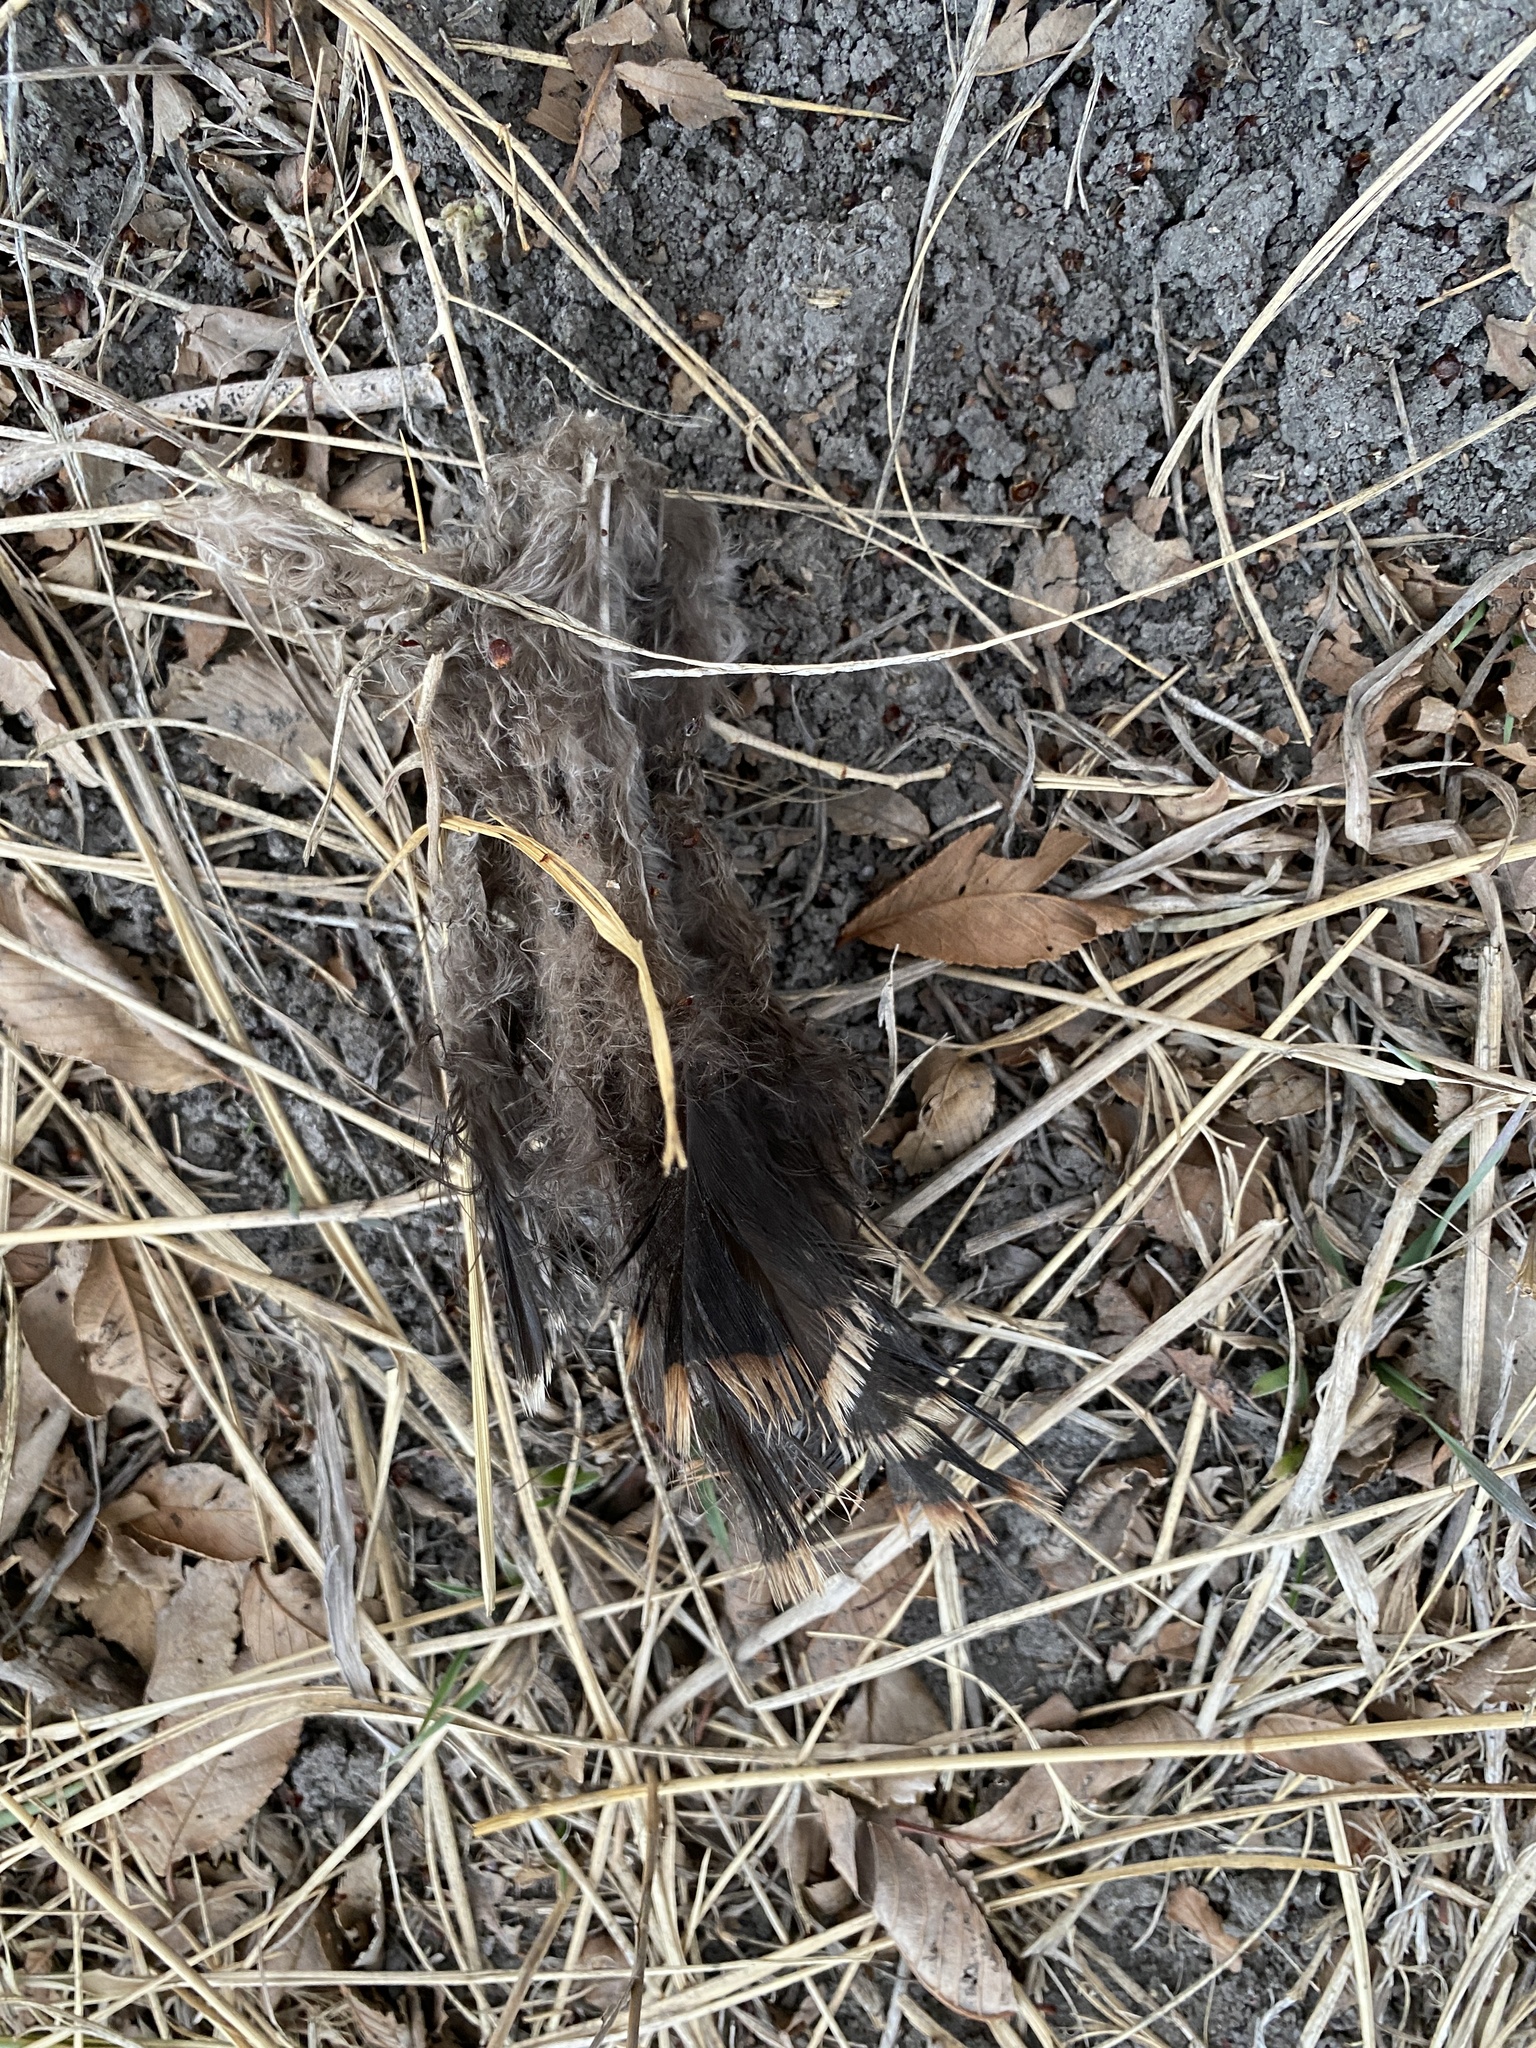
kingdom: Animalia
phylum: Chordata
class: Aves
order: Galliformes
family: Phasianidae
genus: Meleagris
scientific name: Meleagris gallopavo
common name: Wild turkey
